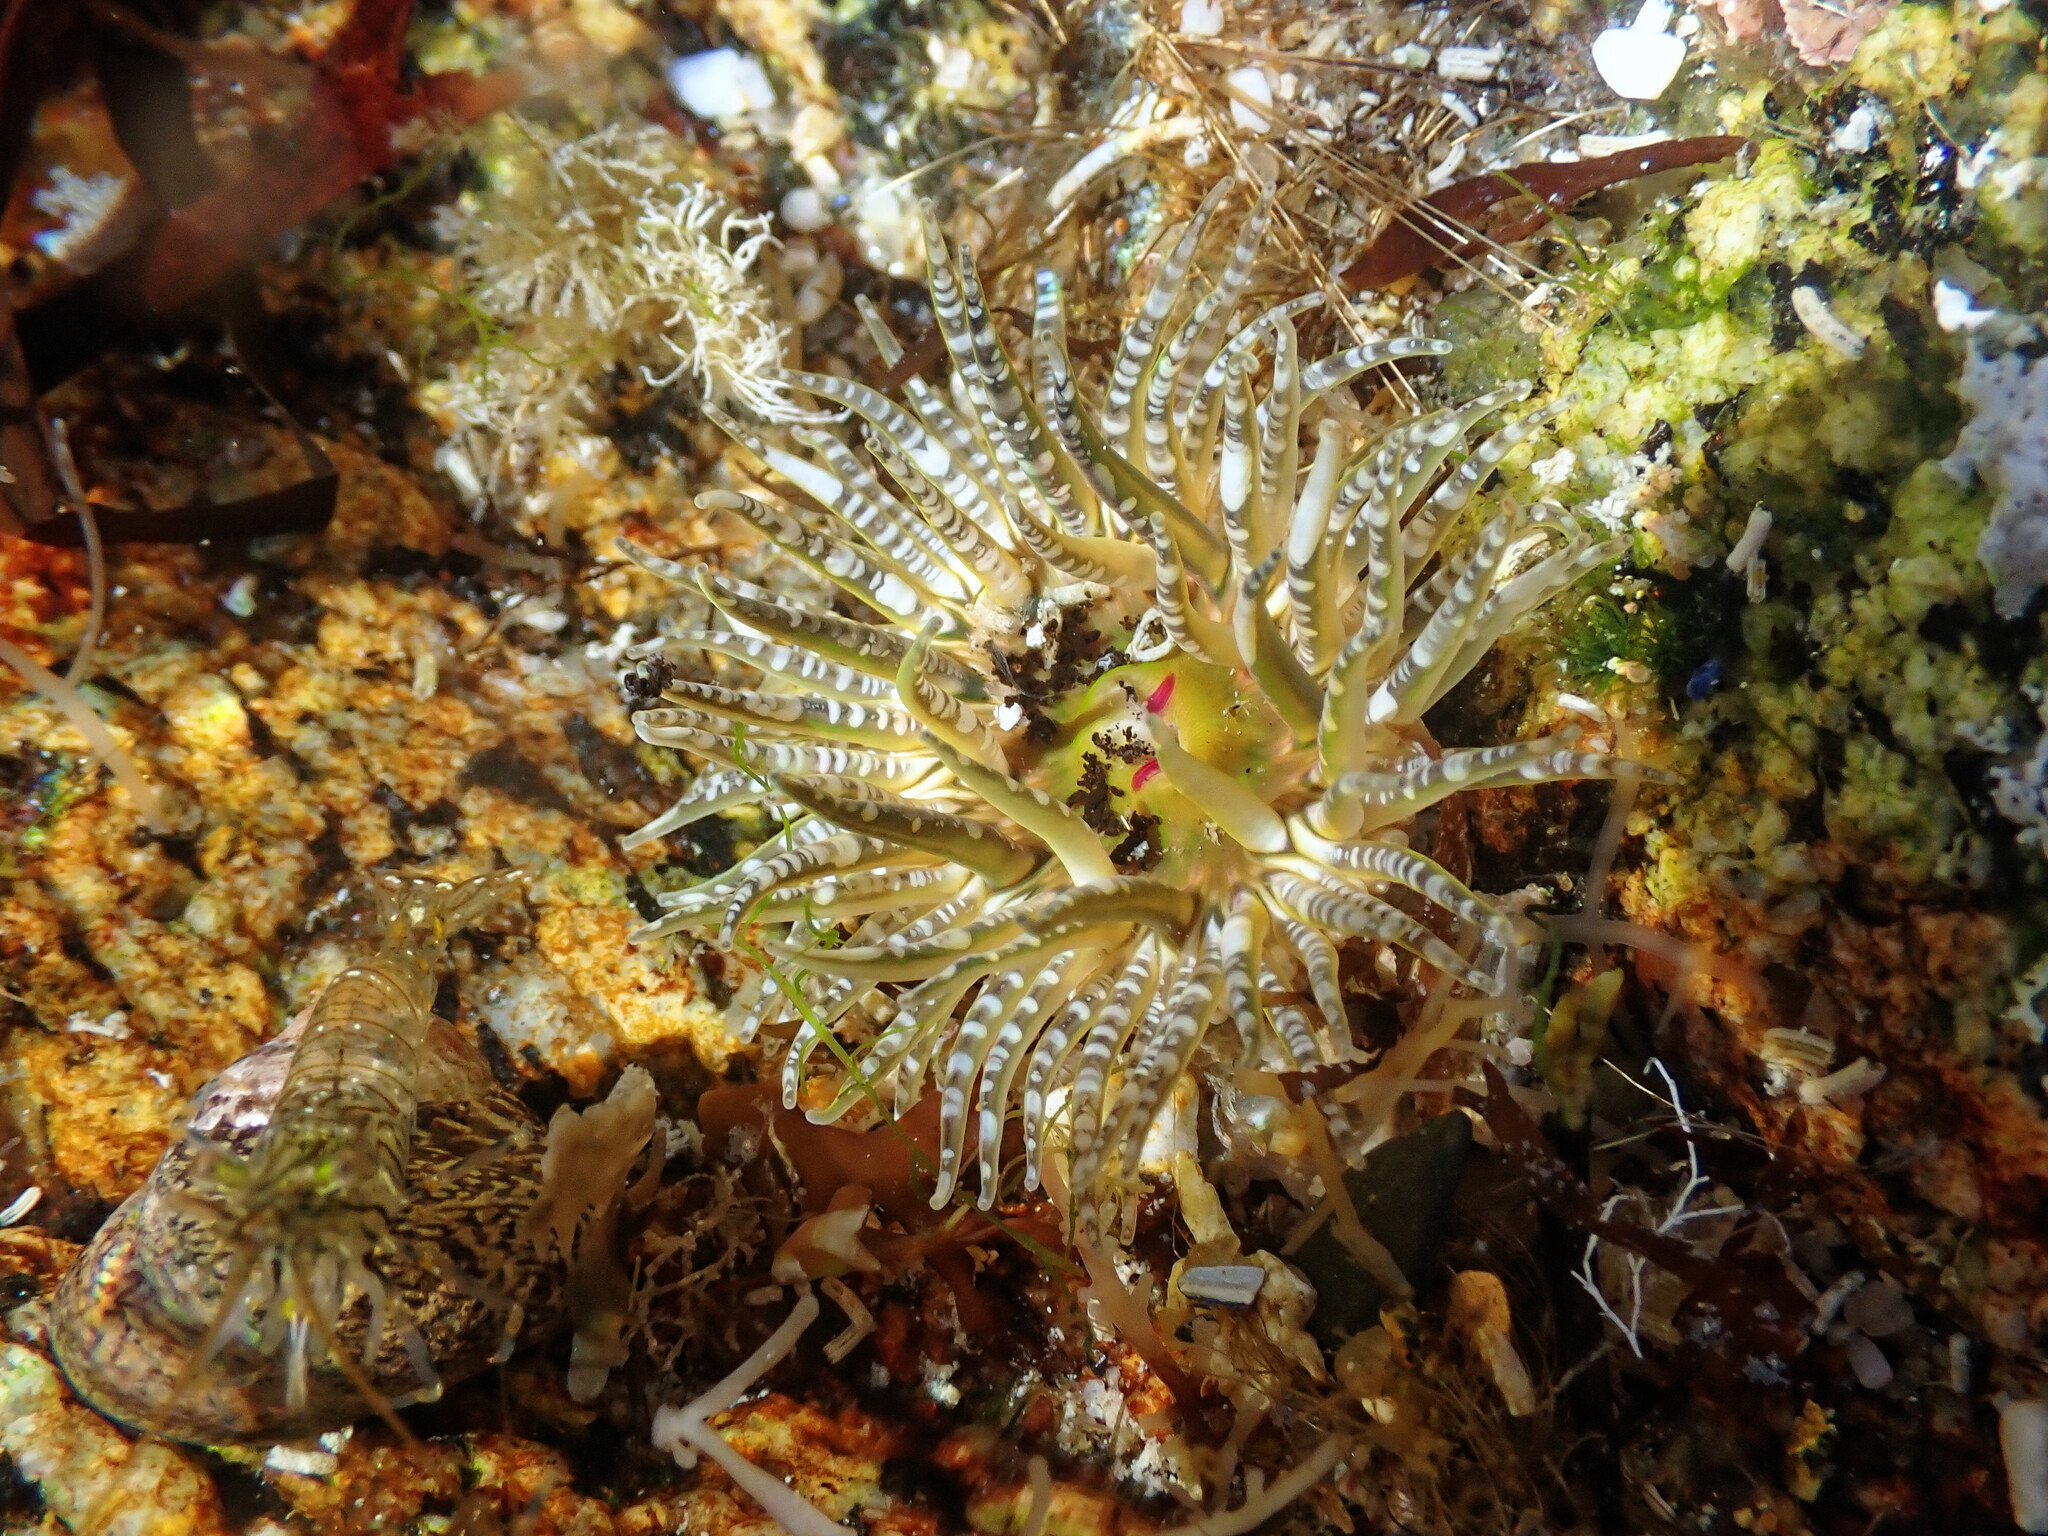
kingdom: Animalia
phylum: Cnidaria
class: Anthozoa
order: Actiniaria
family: Actiniidae
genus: Bunodactis
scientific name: Bunodactis verrucosa
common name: Gem anemone
